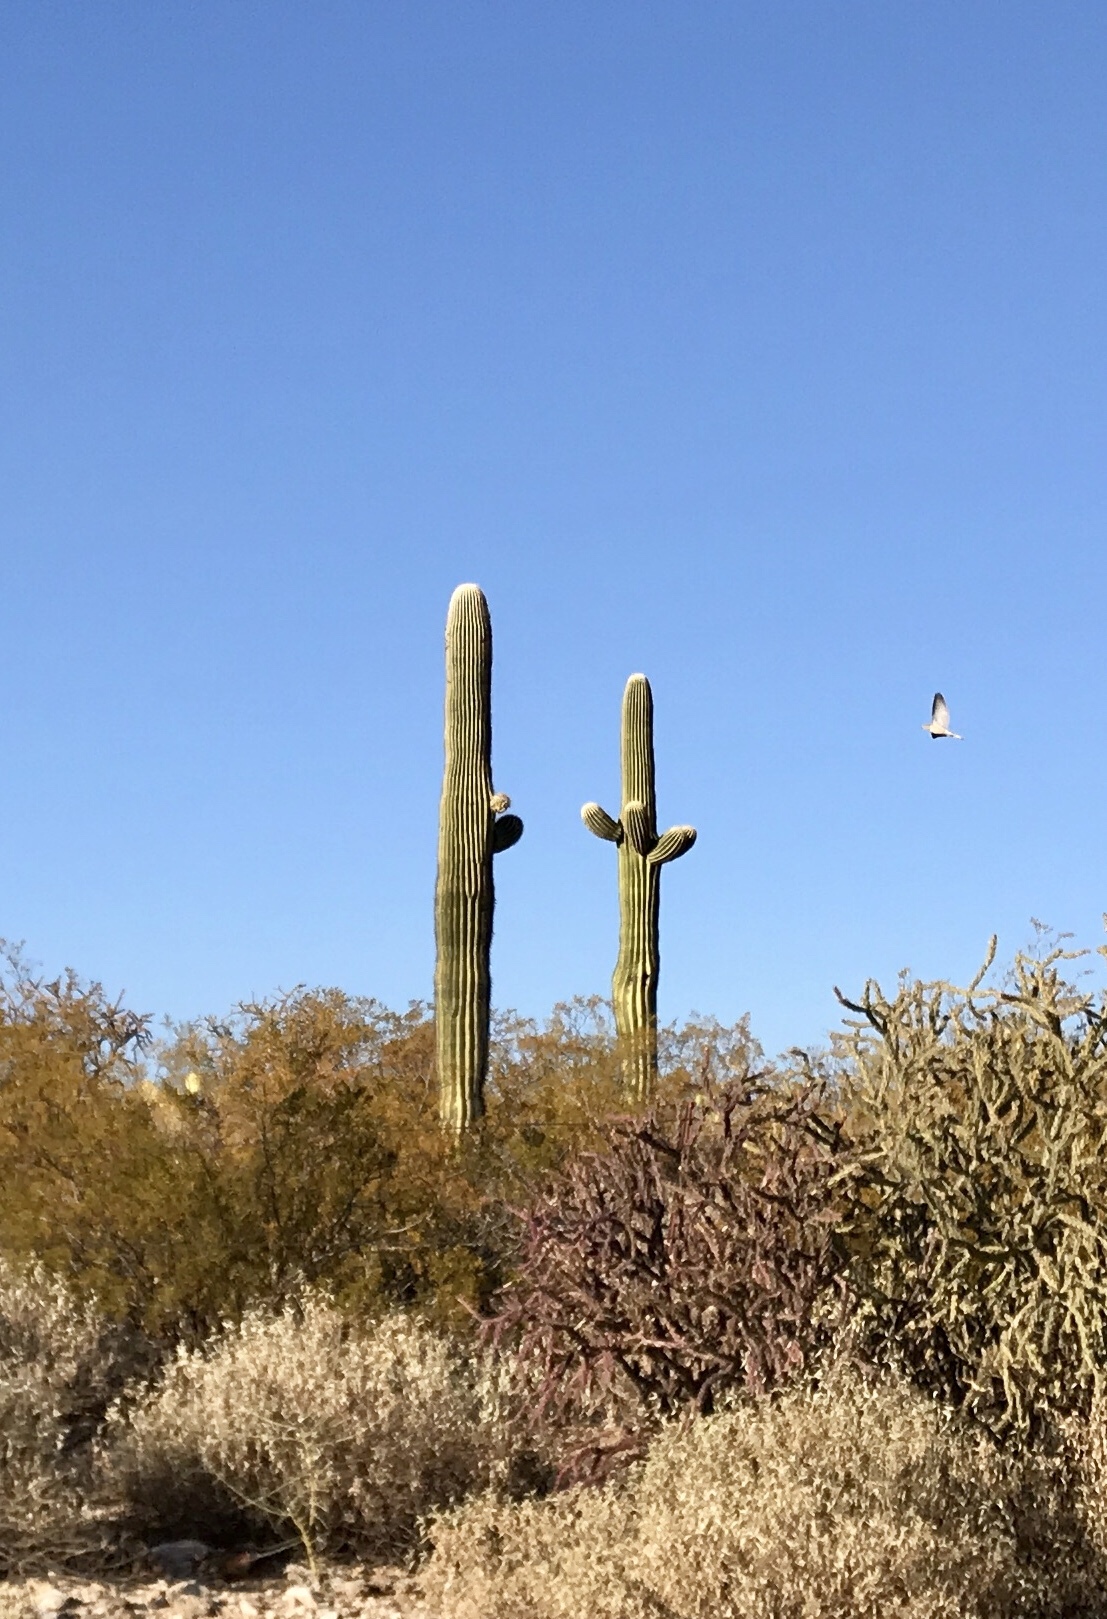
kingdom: Plantae
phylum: Tracheophyta
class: Magnoliopsida
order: Caryophyllales
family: Cactaceae
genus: Carnegiea
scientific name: Carnegiea gigantea
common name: Saguaro
